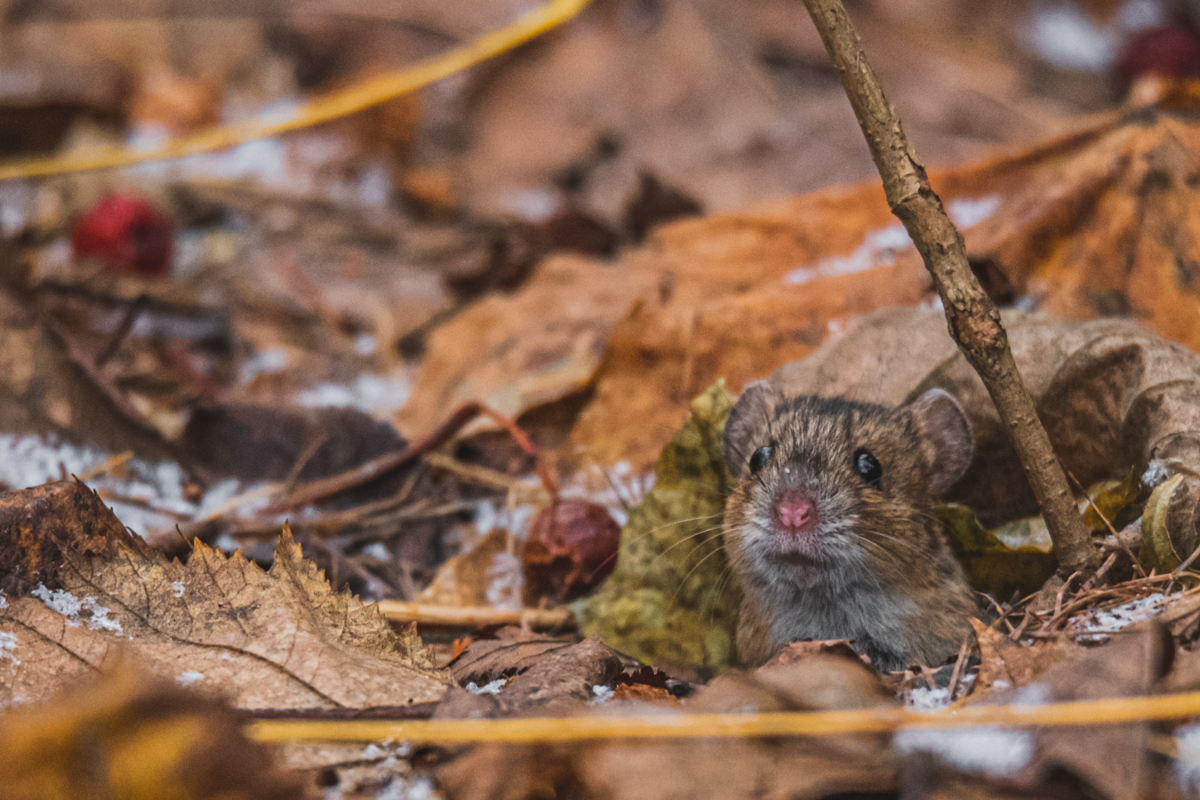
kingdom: Animalia
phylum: Chordata
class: Mammalia
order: Rodentia
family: Muridae
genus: Apodemus
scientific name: Apodemus agrarius
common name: Striped field mouse
